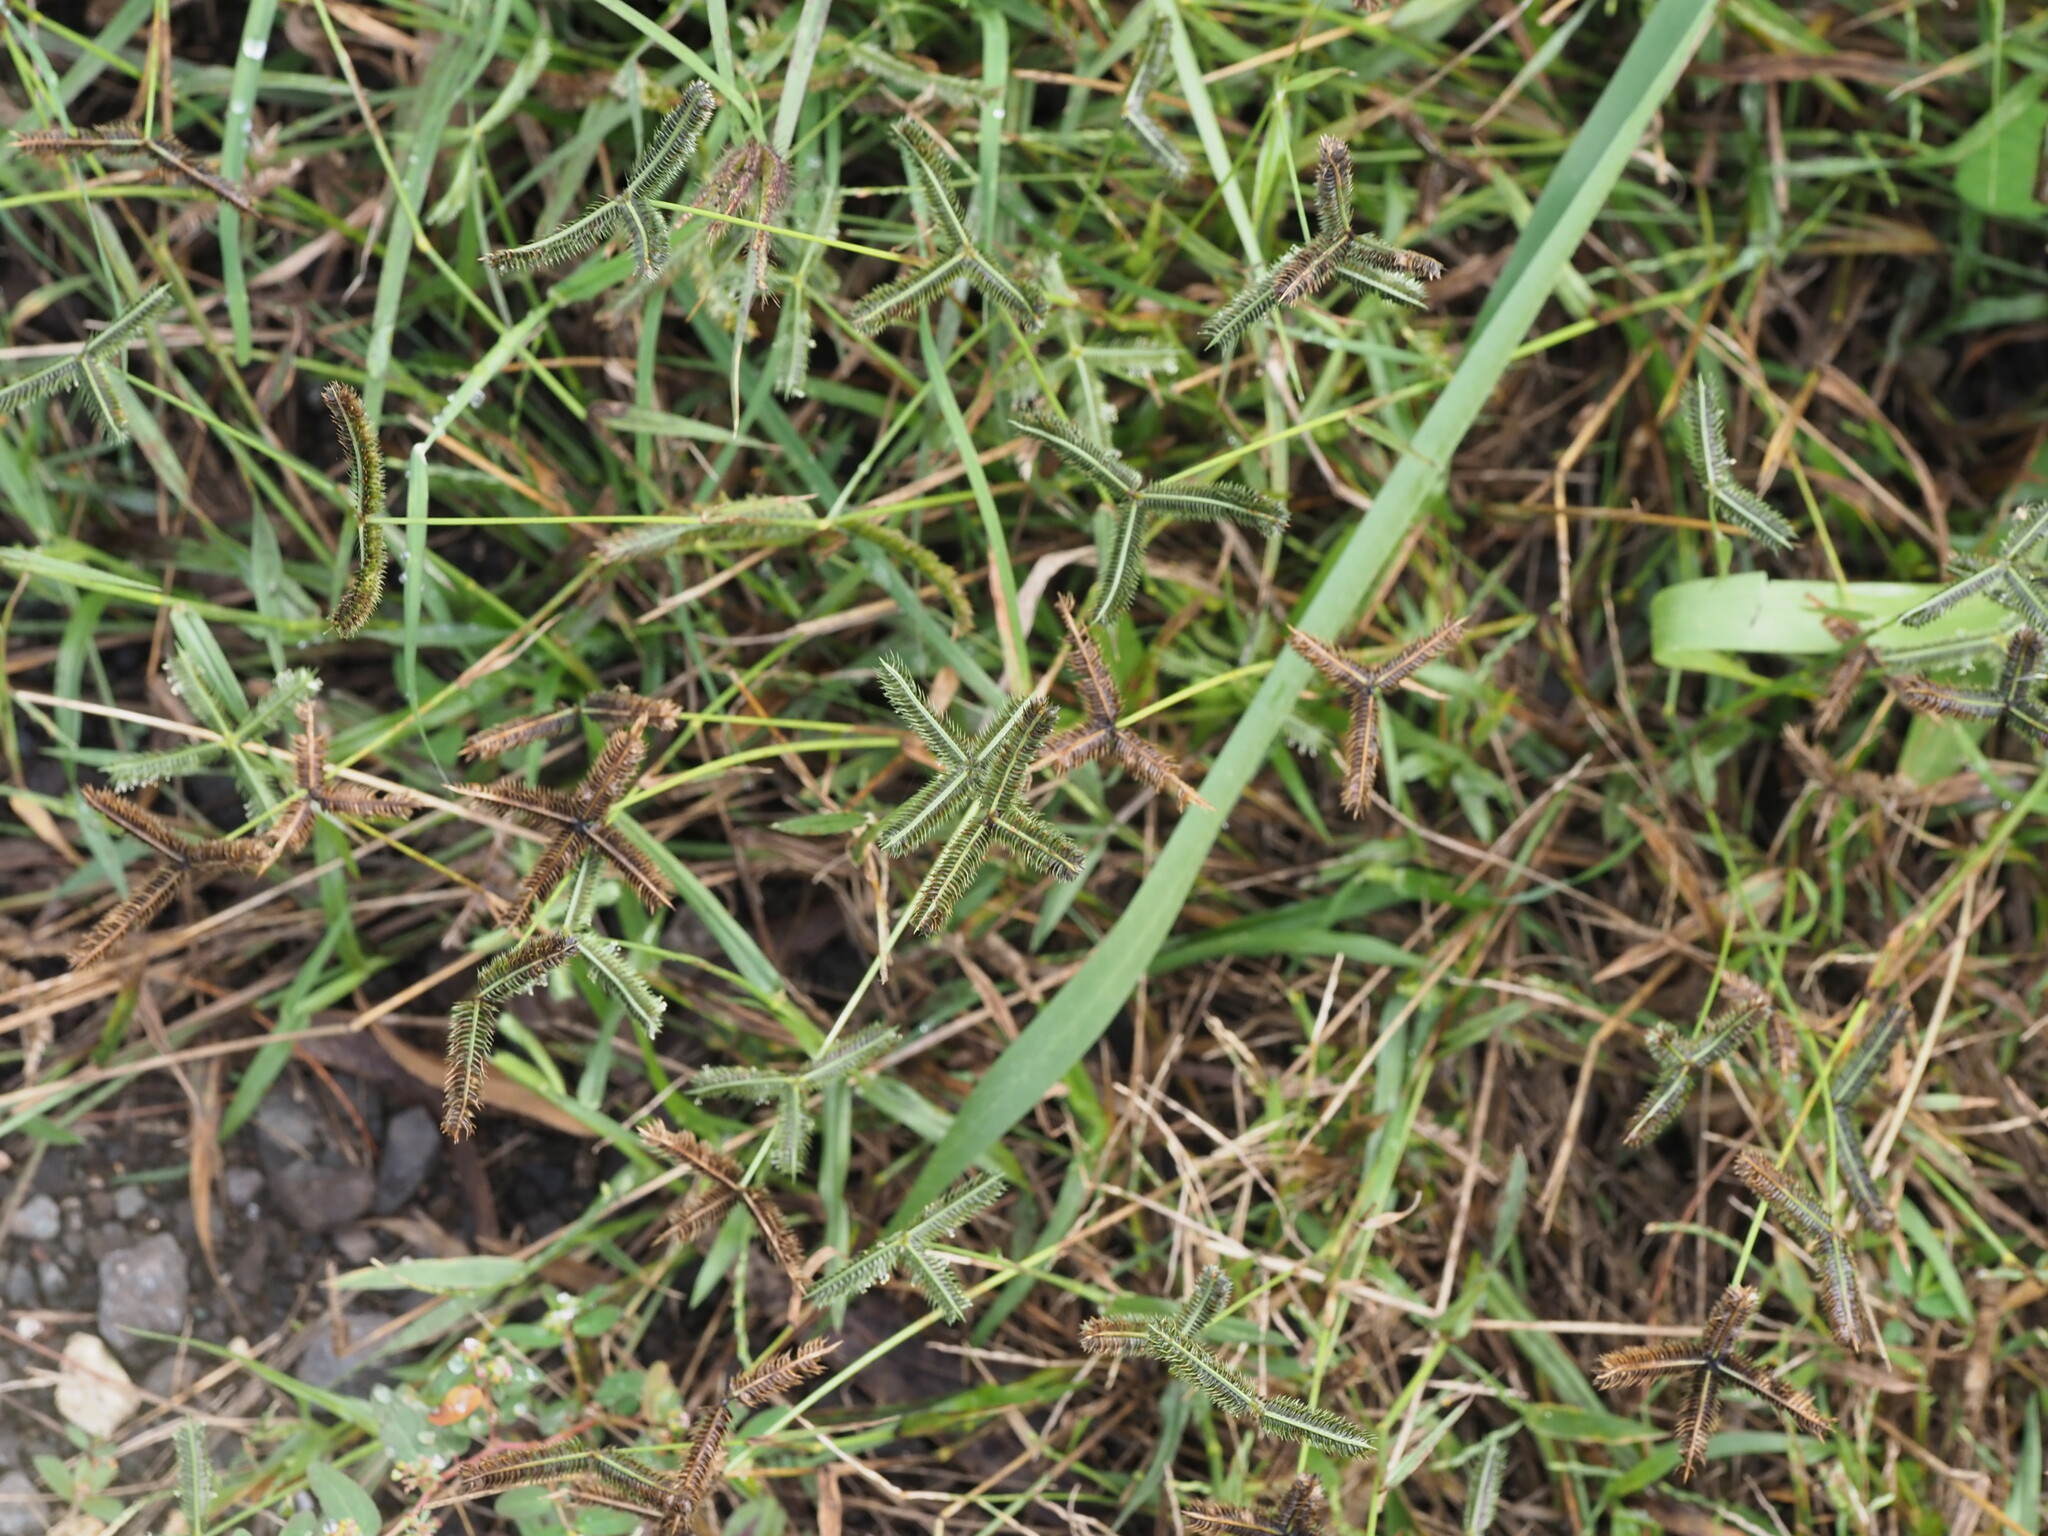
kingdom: Plantae
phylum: Tracheophyta
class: Liliopsida
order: Poales
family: Poaceae
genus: Dactyloctenium
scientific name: Dactyloctenium aegyptium
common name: Egyptian grass
